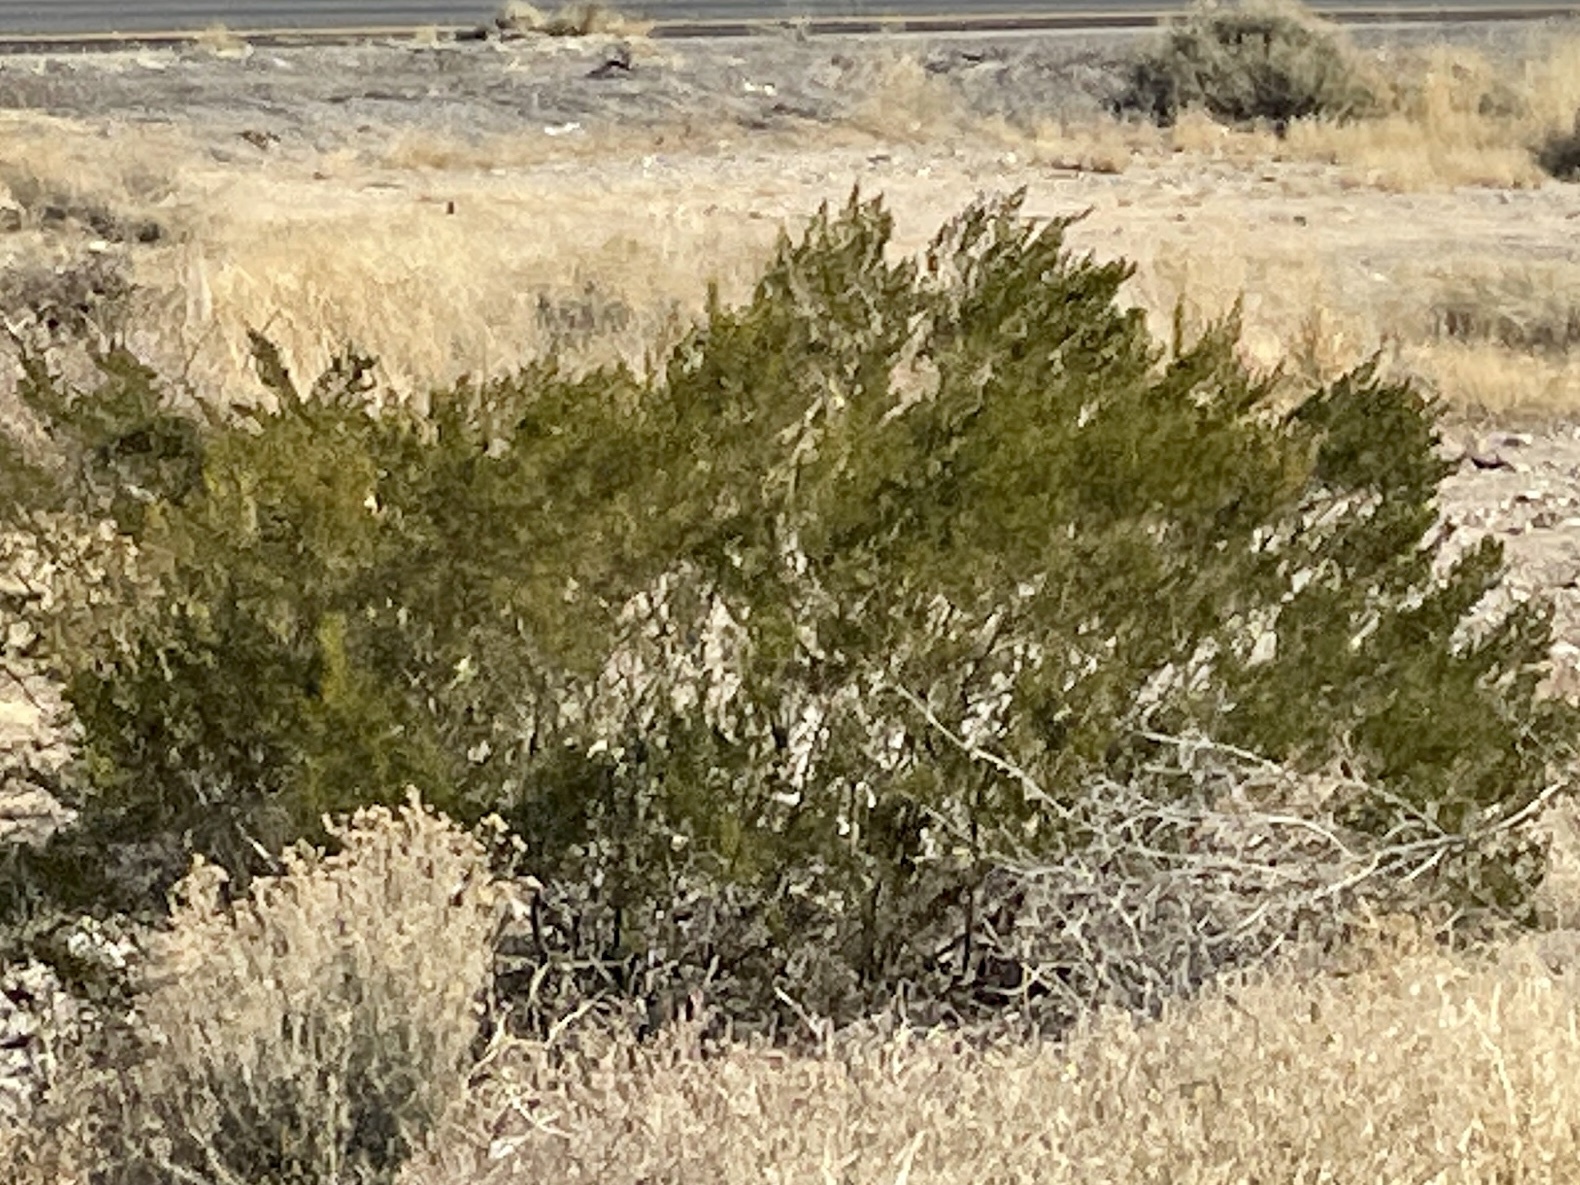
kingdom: Plantae
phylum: Tracheophyta
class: Magnoliopsida
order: Zygophyllales
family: Zygophyllaceae
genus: Larrea
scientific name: Larrea tridentata
